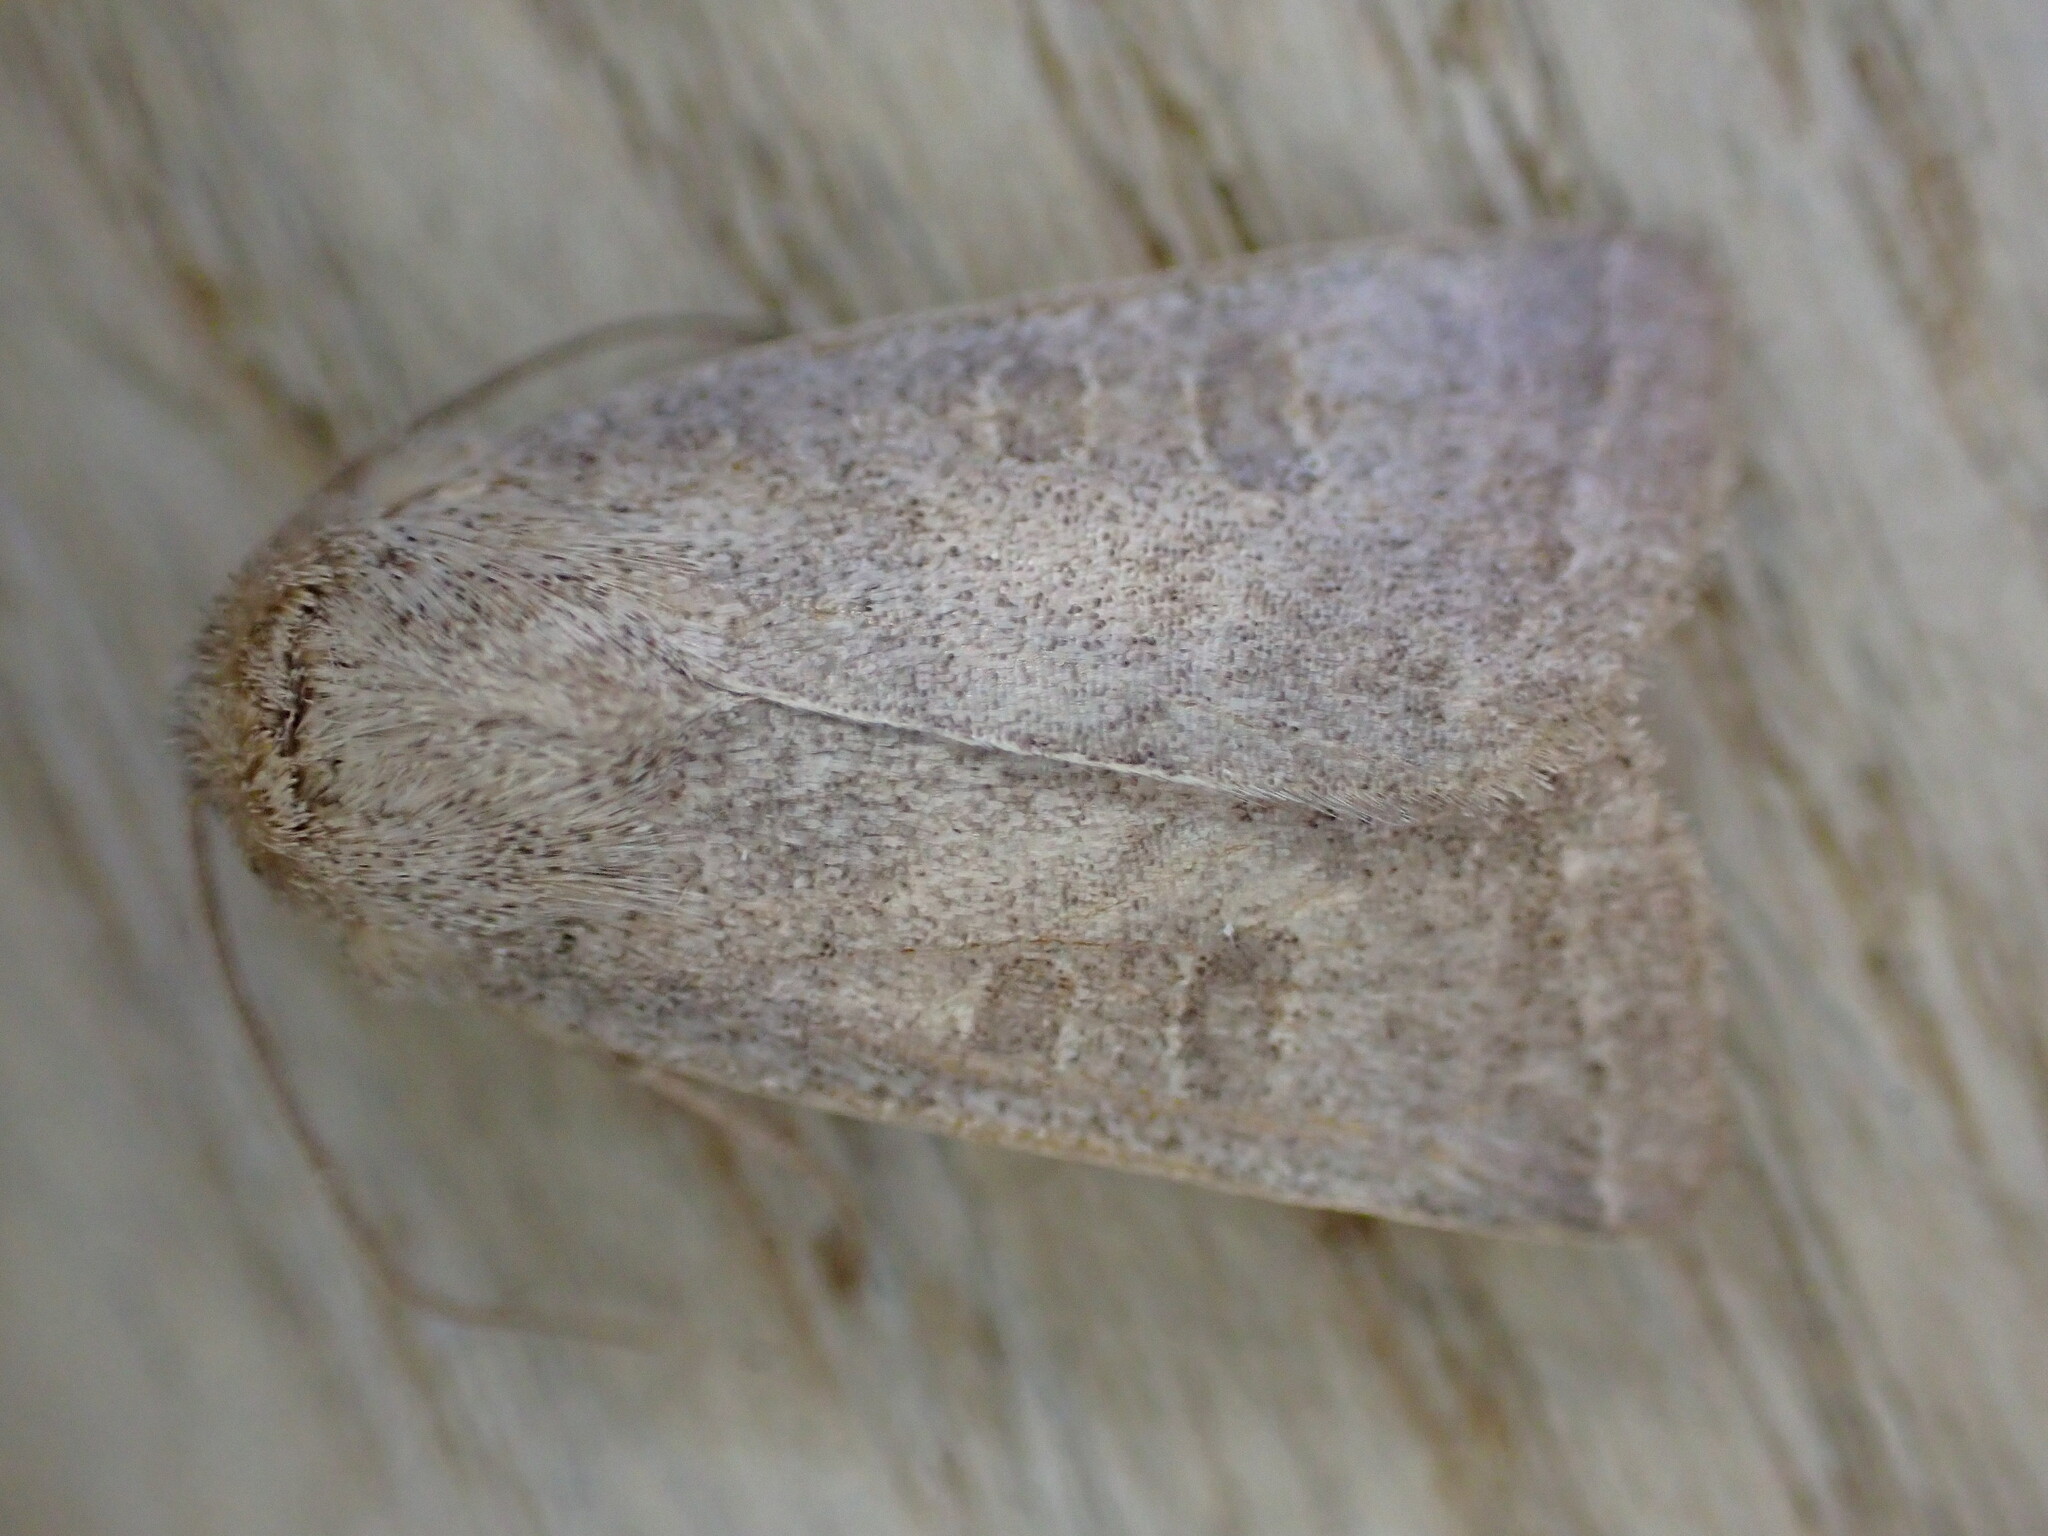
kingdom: Animalia
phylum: Arthropoda
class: Insecta
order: Lepidoptera
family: Noctuidae
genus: Hoplodrina
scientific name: Hoplodrina ambigua
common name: Vine's rustic
